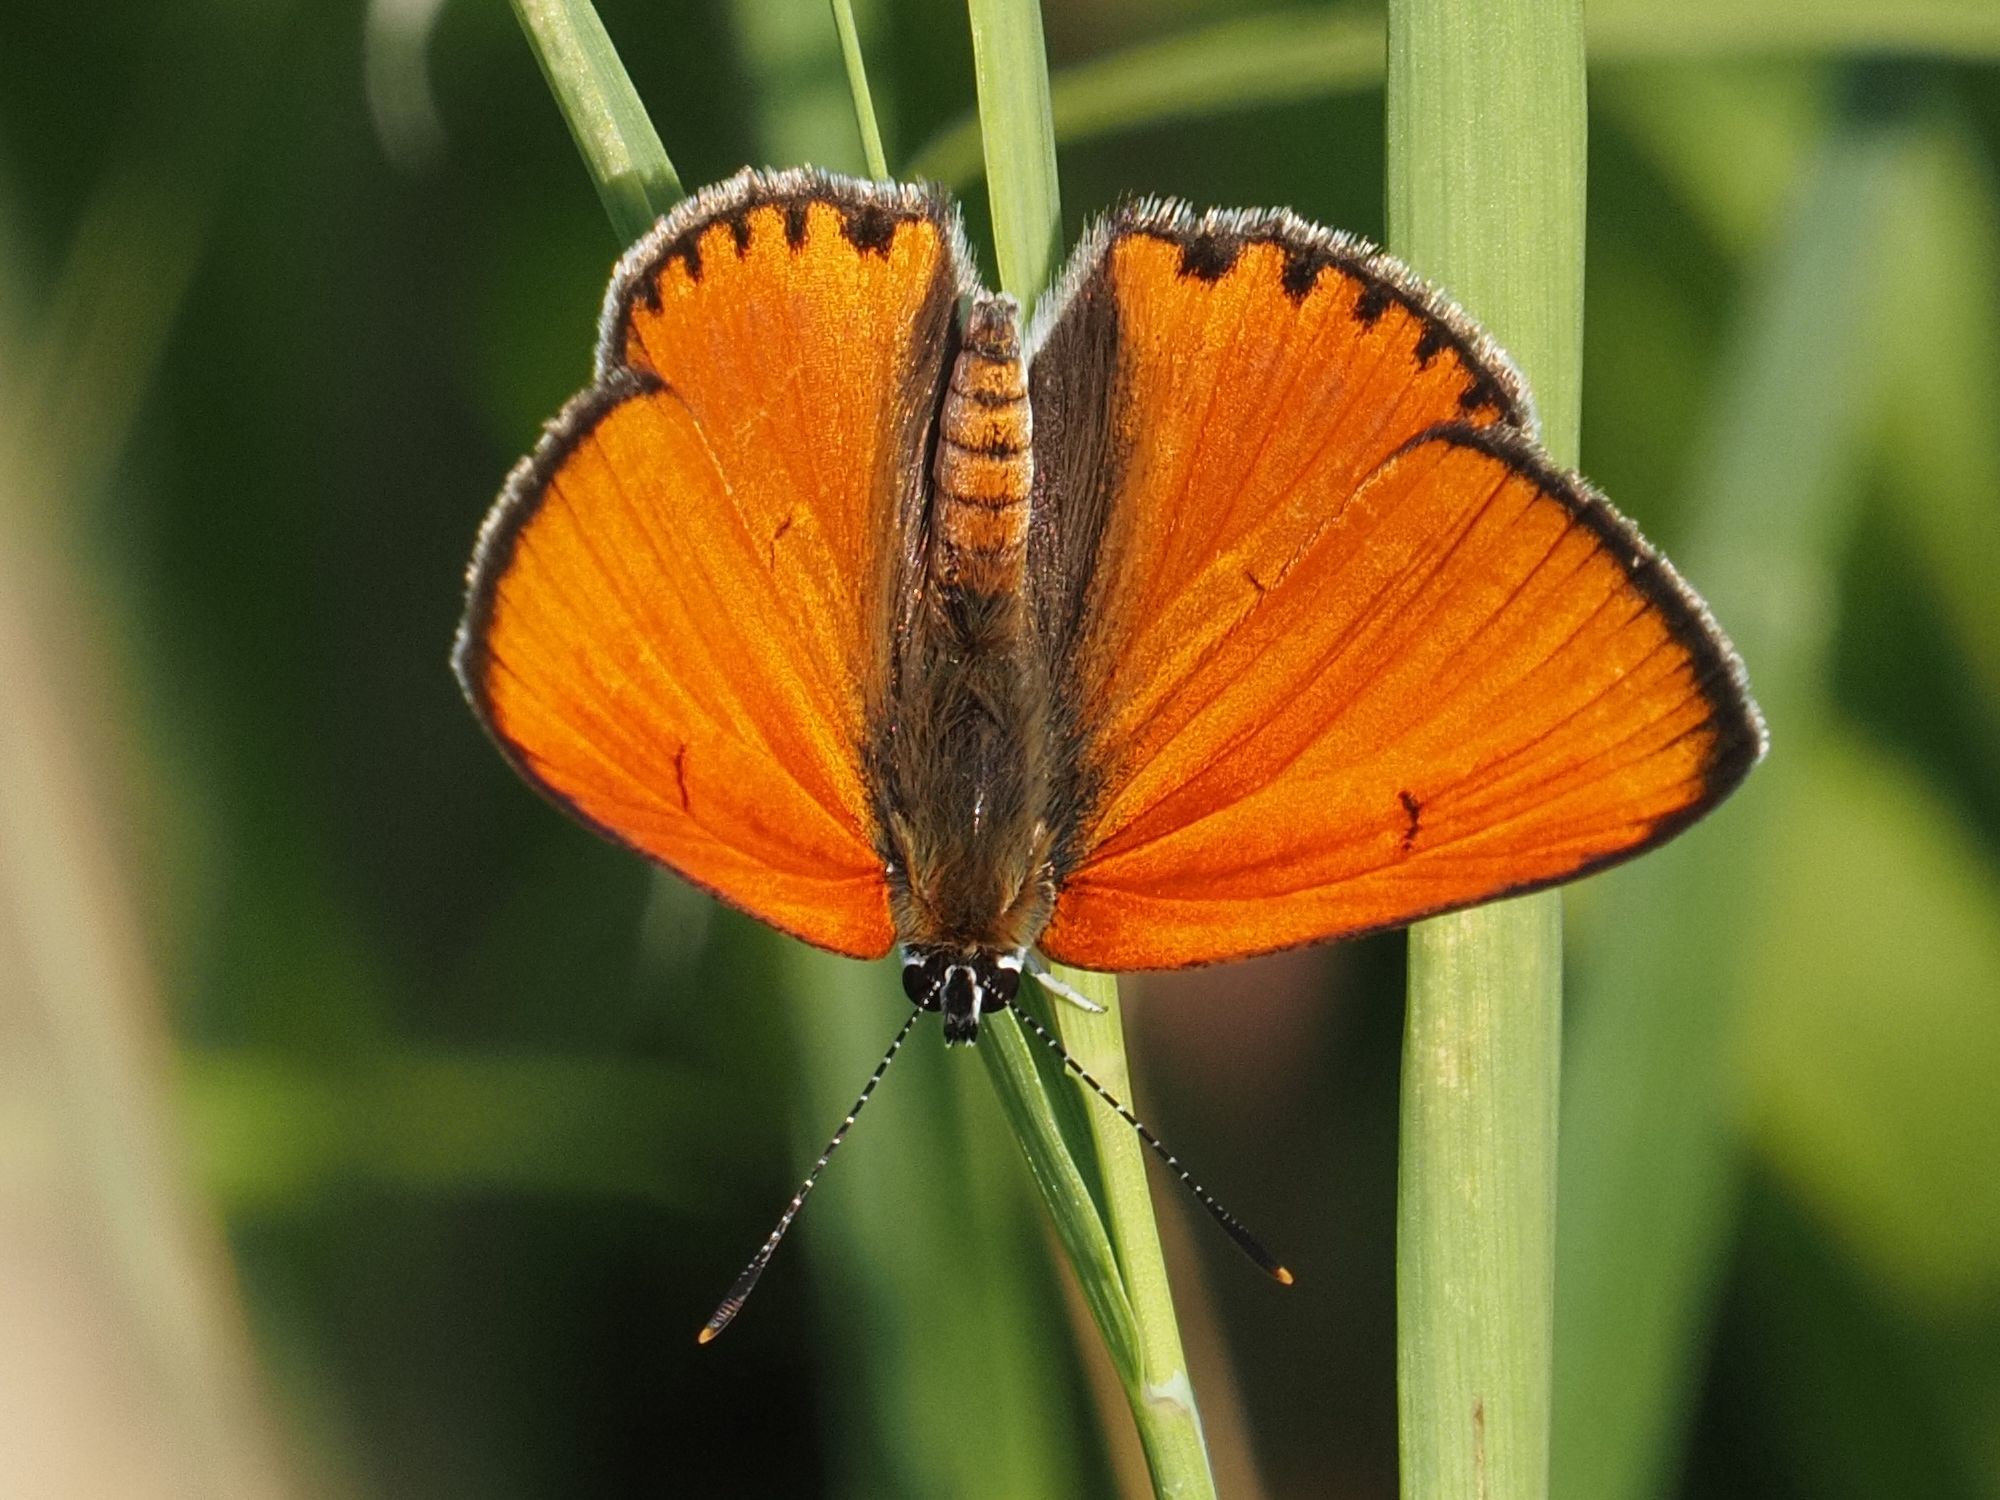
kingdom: Animalia
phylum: Arthropoda
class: Insecta
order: Lepidoptera
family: Lycaenidae
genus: Lycaena
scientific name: Lycaena dispar
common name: Large copper
